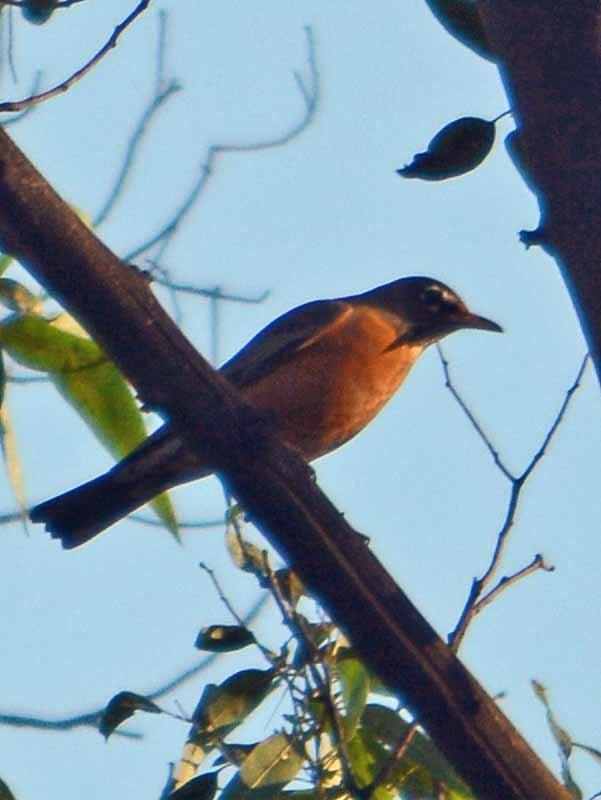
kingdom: Animalia
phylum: Chordata
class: Aves
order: Passeriformes
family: Turdidae
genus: Turdus
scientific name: Turdus migratorius
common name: American robin
